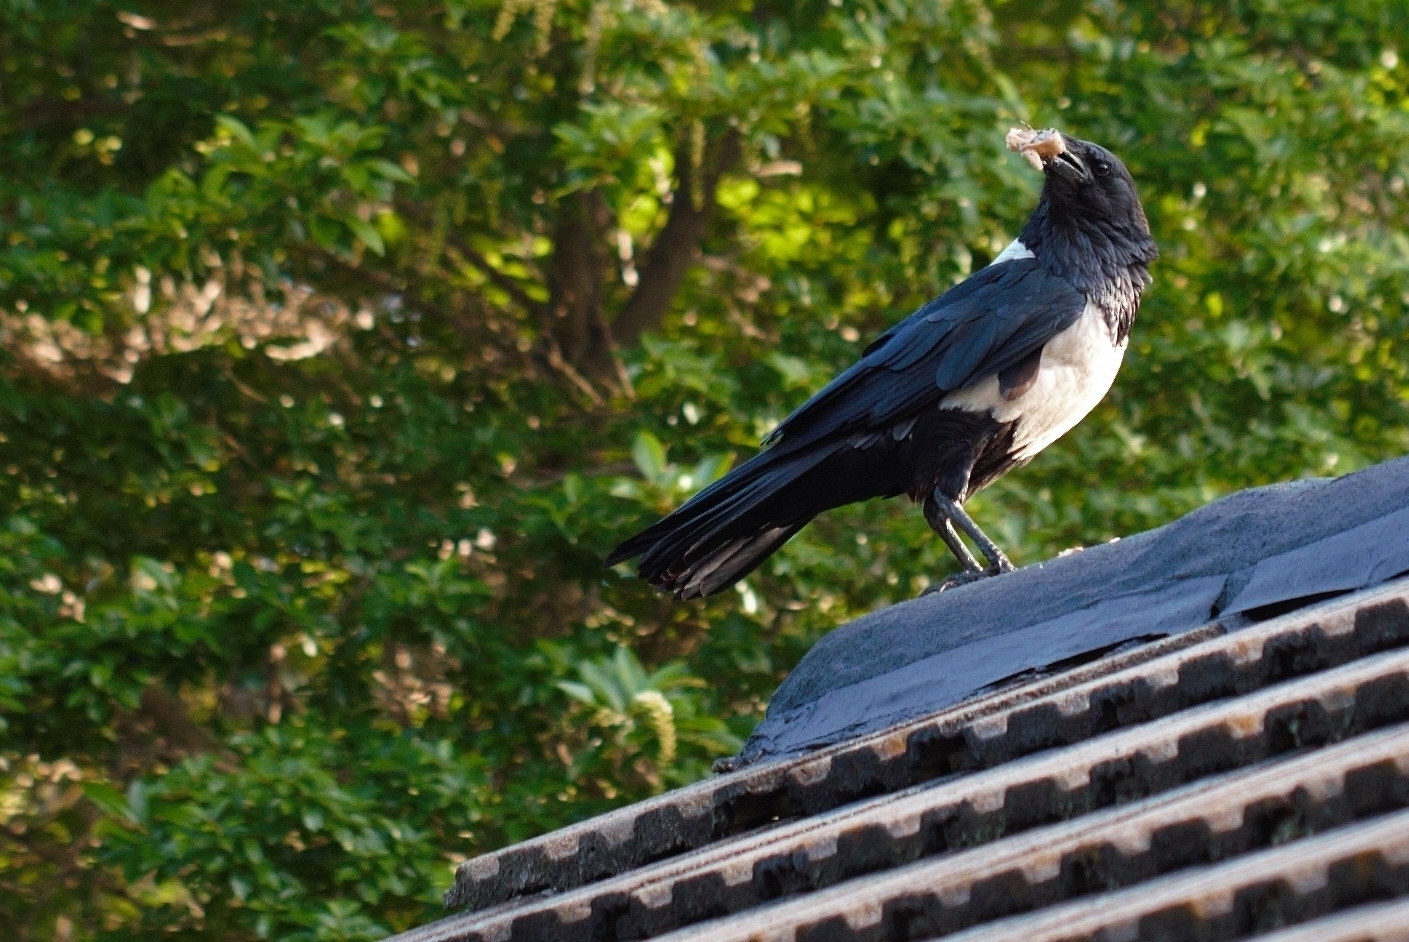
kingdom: Animalia
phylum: Chordata
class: Aves
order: Passeriformes
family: Corvidae
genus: Corvus
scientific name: Corvus albus
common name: Pied crow
